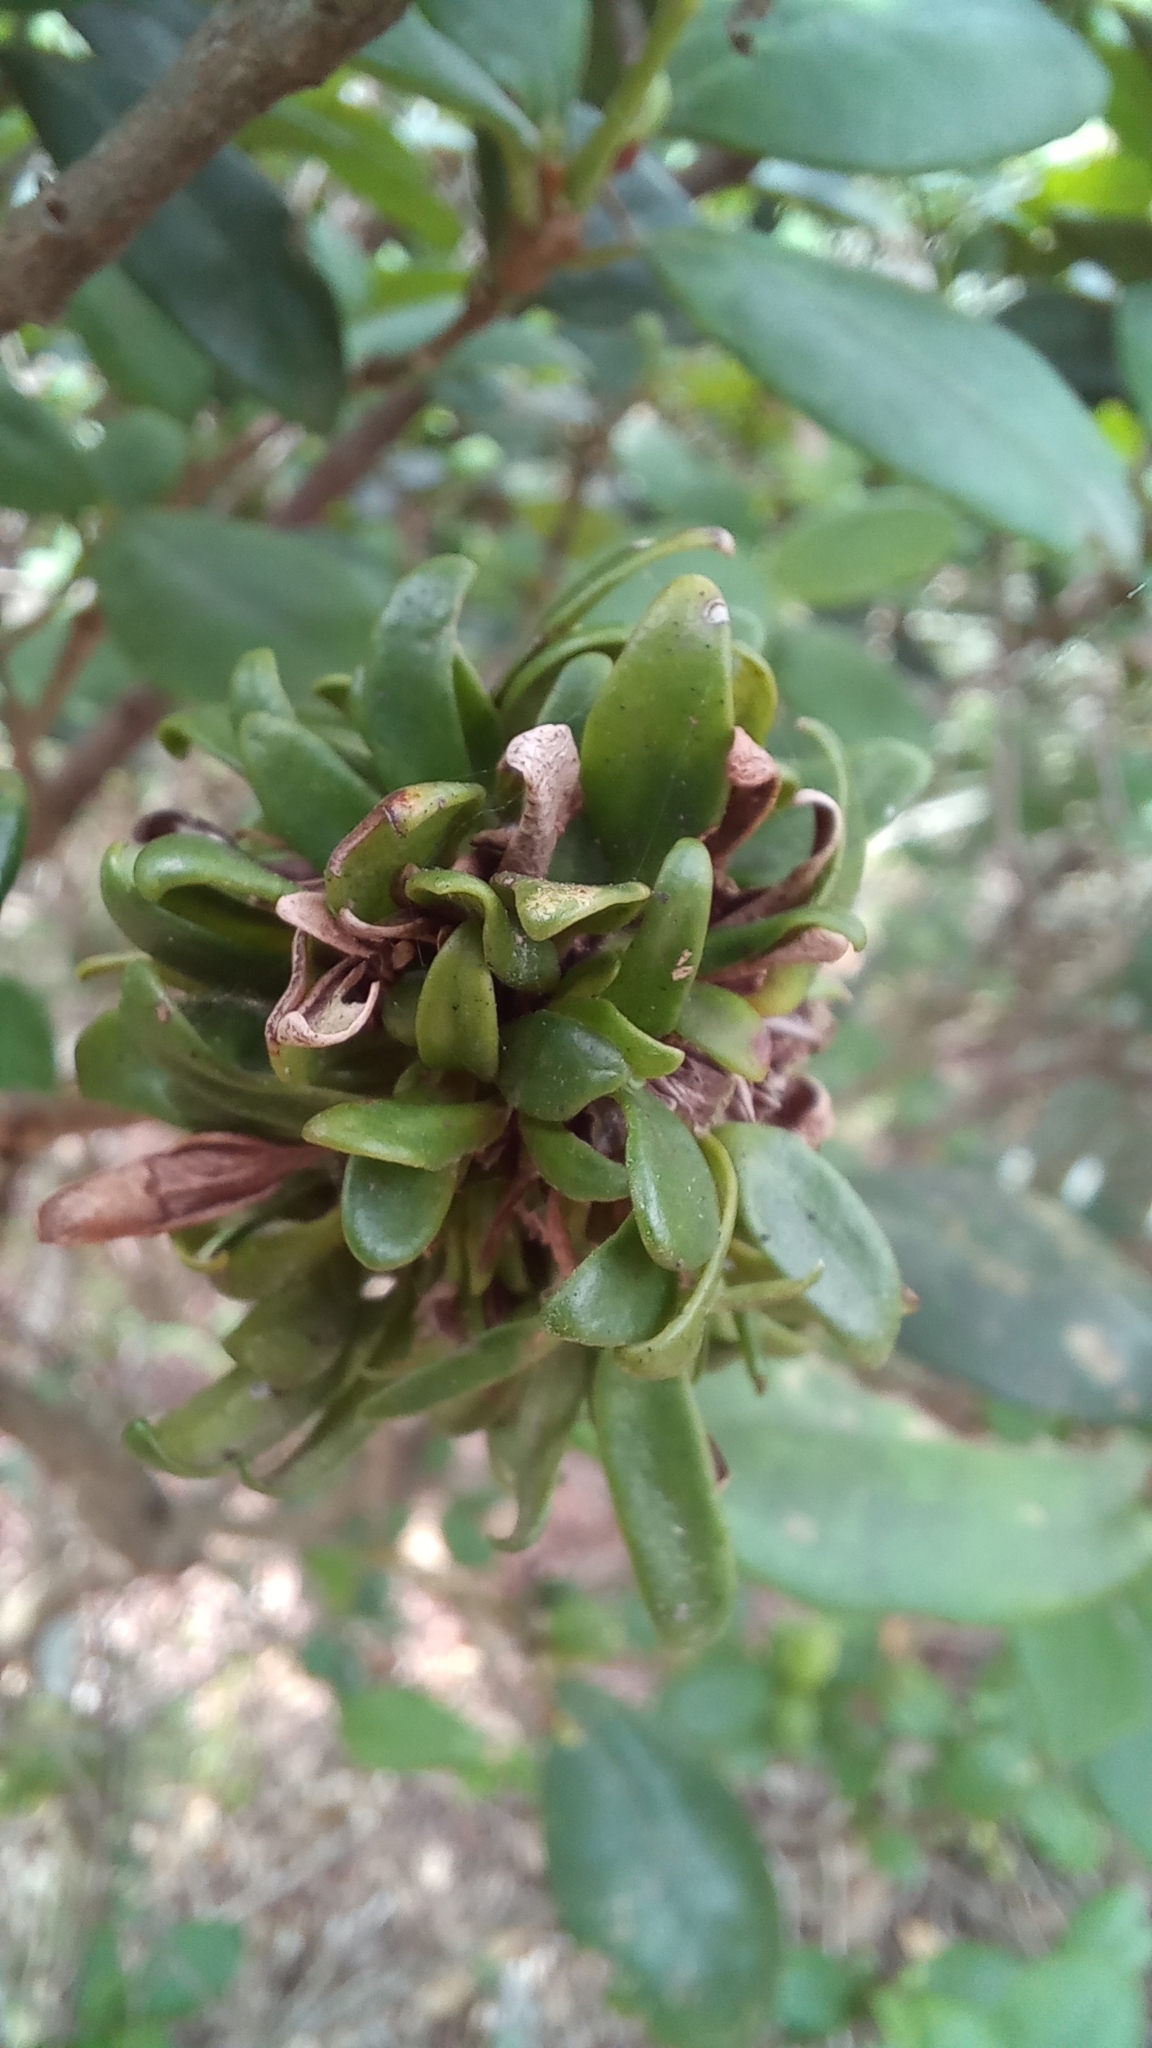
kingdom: Plantae
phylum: Tracheophyta
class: Magnoliopsida
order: Caryophyllales
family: Nyctaginaceae
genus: Guapira
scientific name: Guapira opposita
